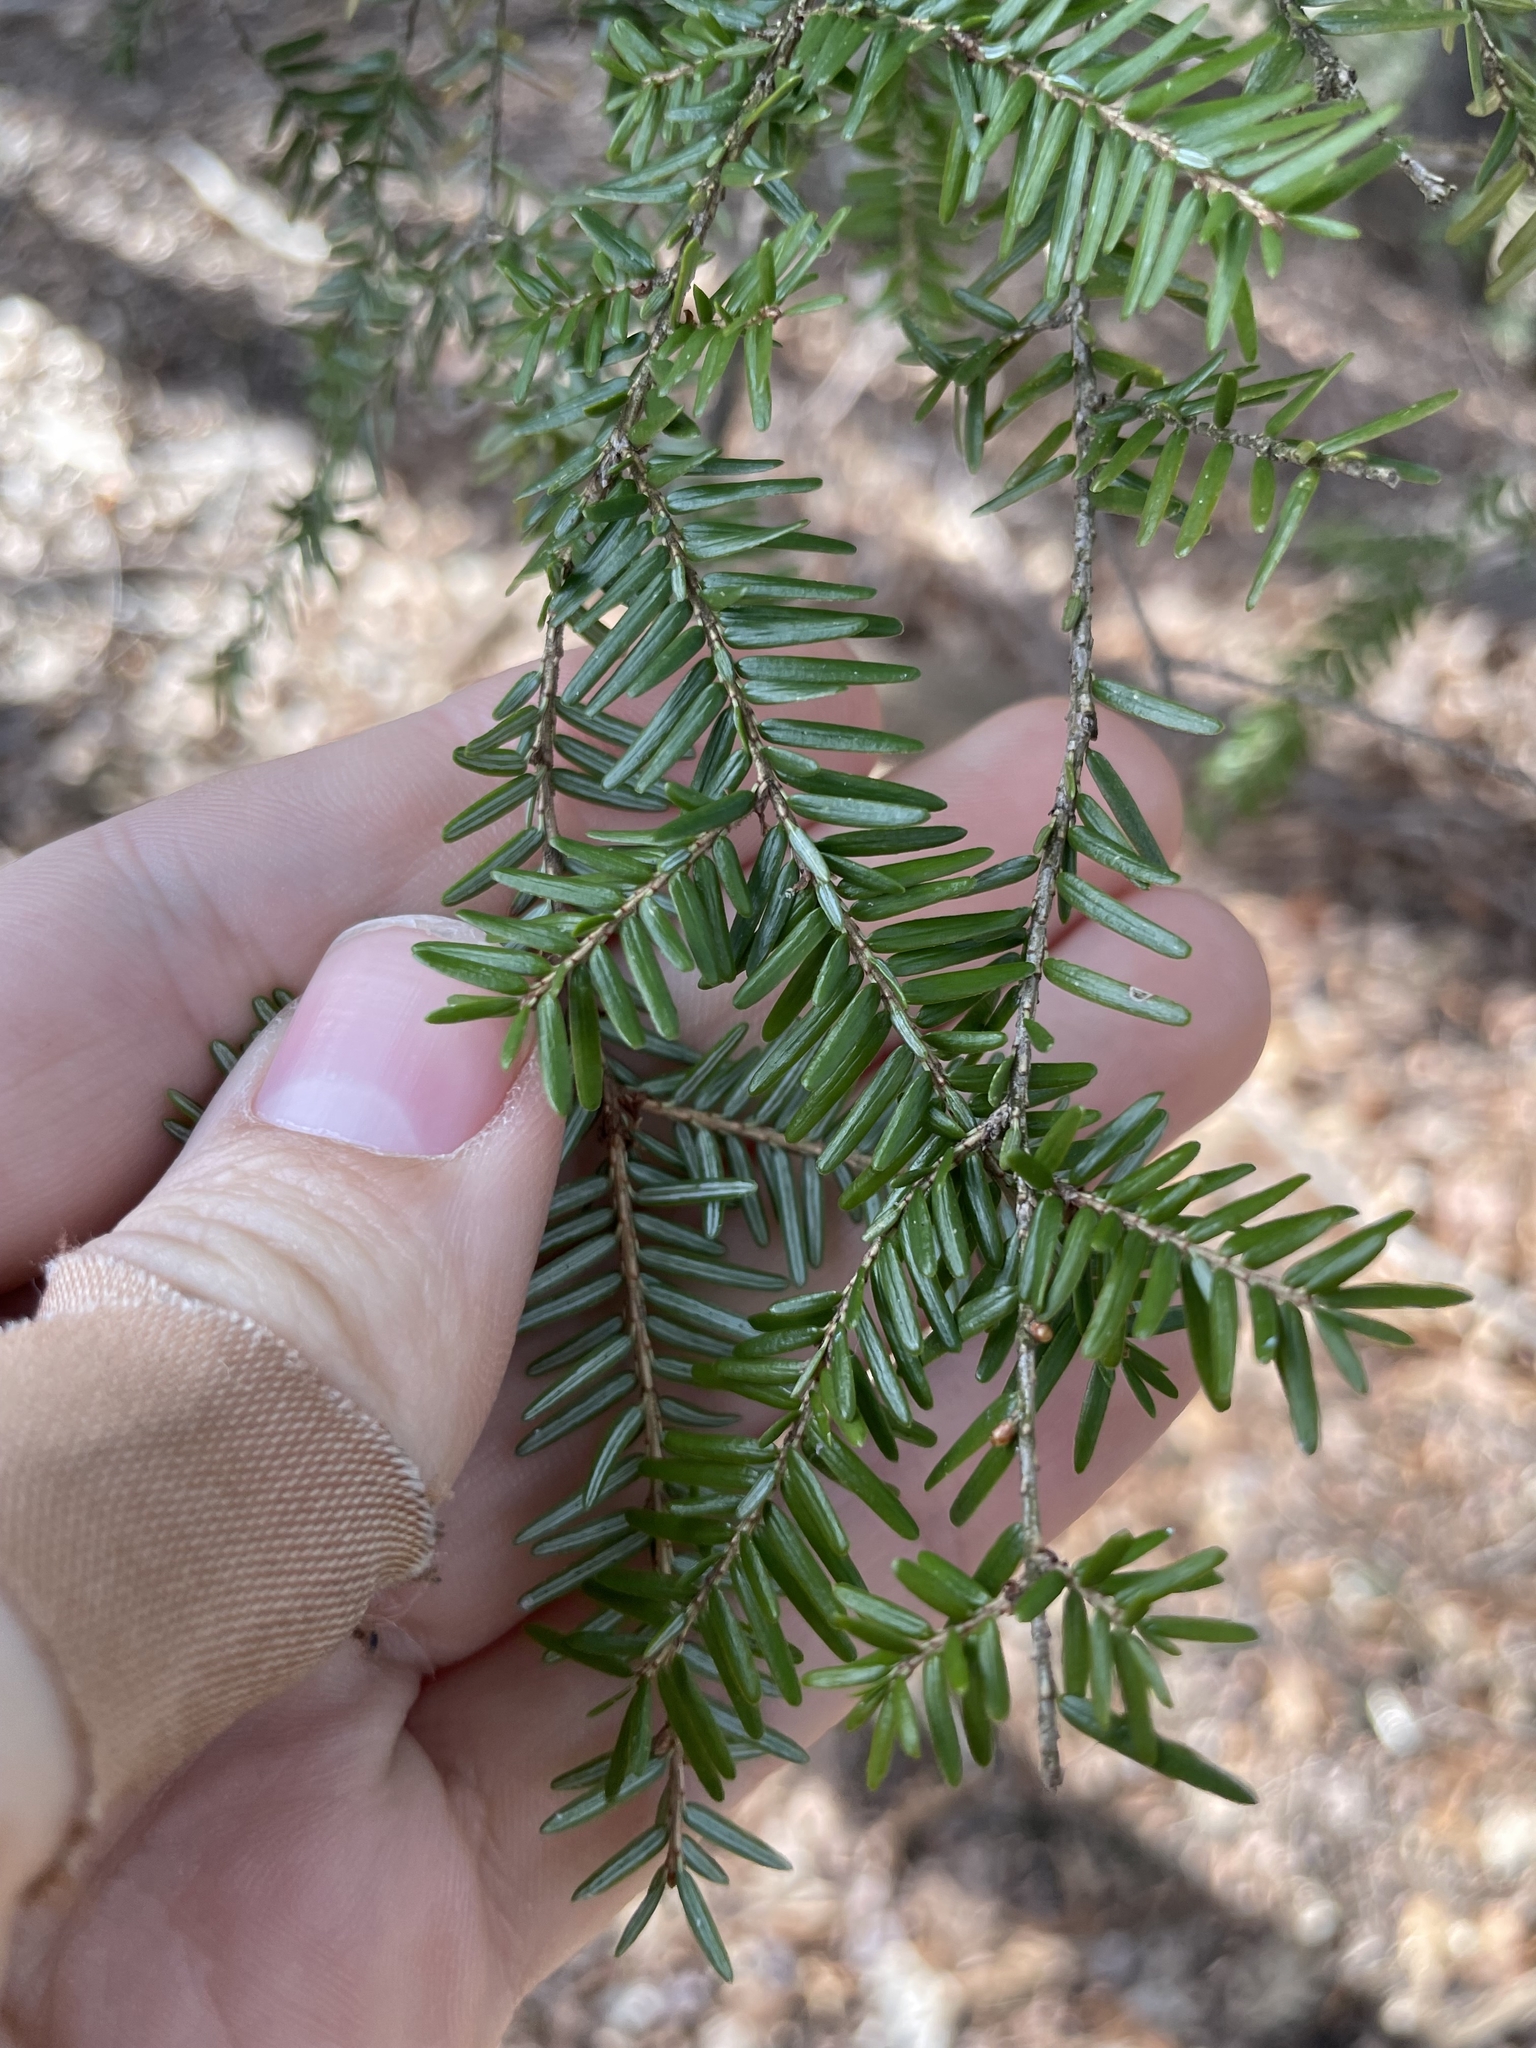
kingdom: Plantae
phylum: Tracheophyta
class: Pinopsida
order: Pinales
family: Pinaceae
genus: Tsuga
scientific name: Tsuga canadensis
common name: Eastern hemlock
